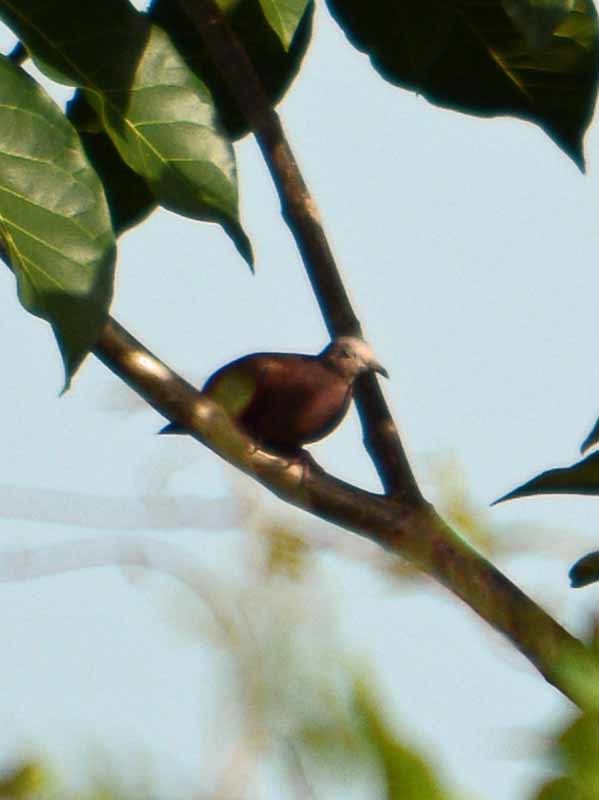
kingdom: Animalia
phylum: Chordata
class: Aves
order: Columbiformes
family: Columbidae
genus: Columbina
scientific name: Columbina talpacoti
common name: Ruddy ground dove
